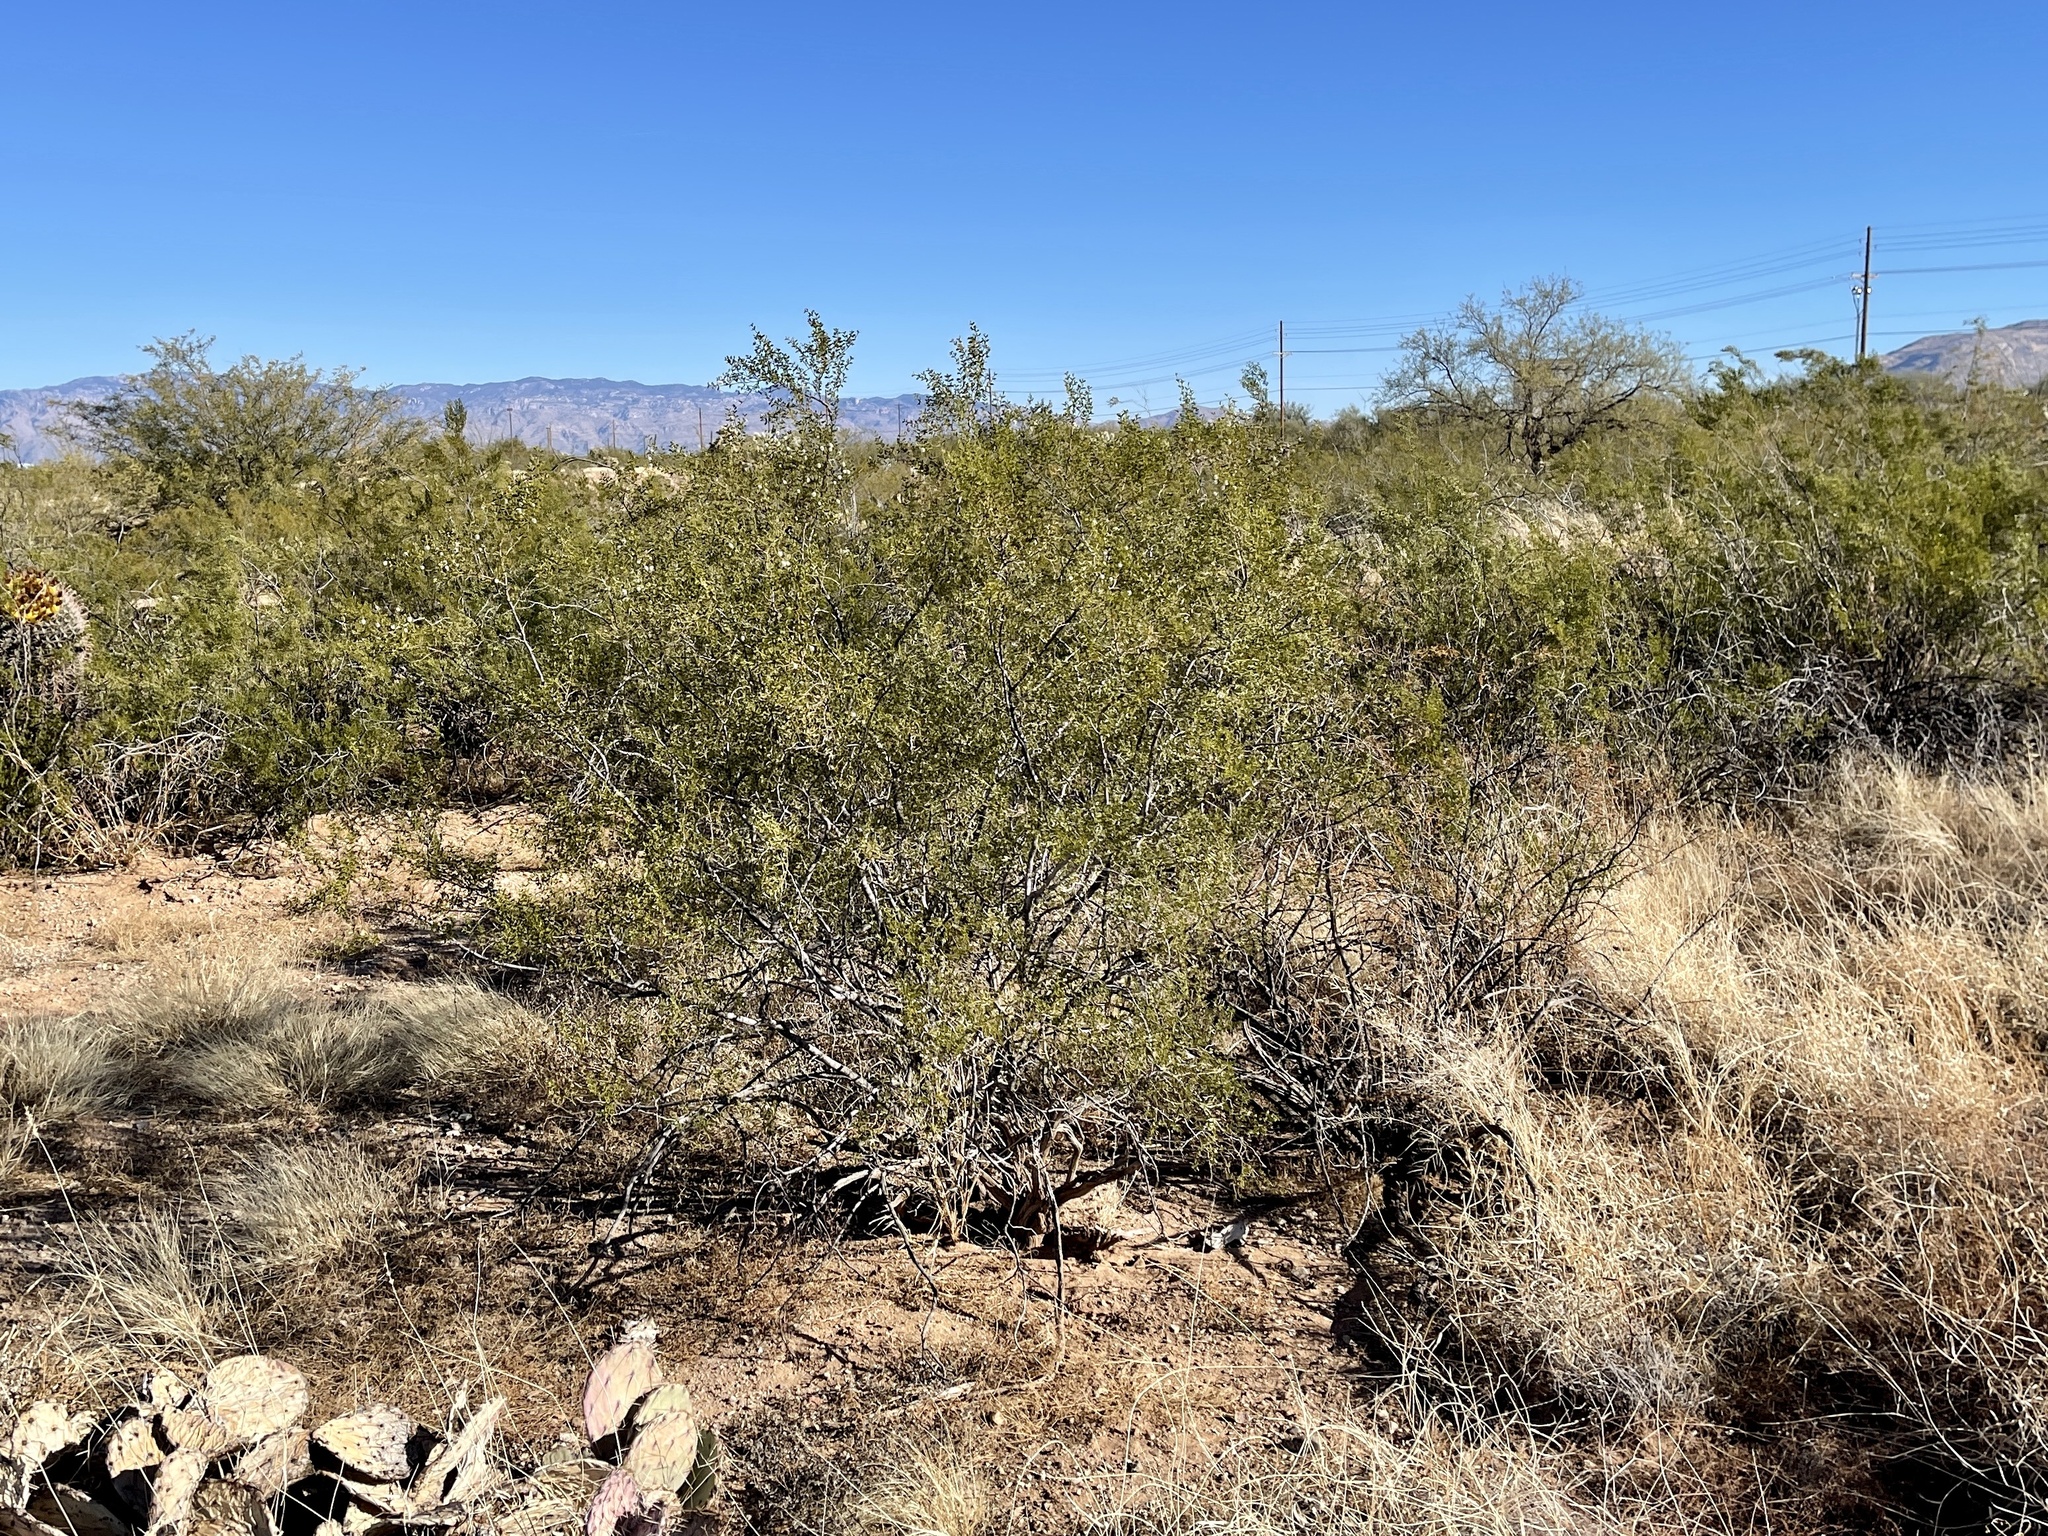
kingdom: Plantae
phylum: Tracheophyta
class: Magnoliopsida
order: Zygophyllales
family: Zygophyllaceae
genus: Larrea
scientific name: Larrea tridentata
